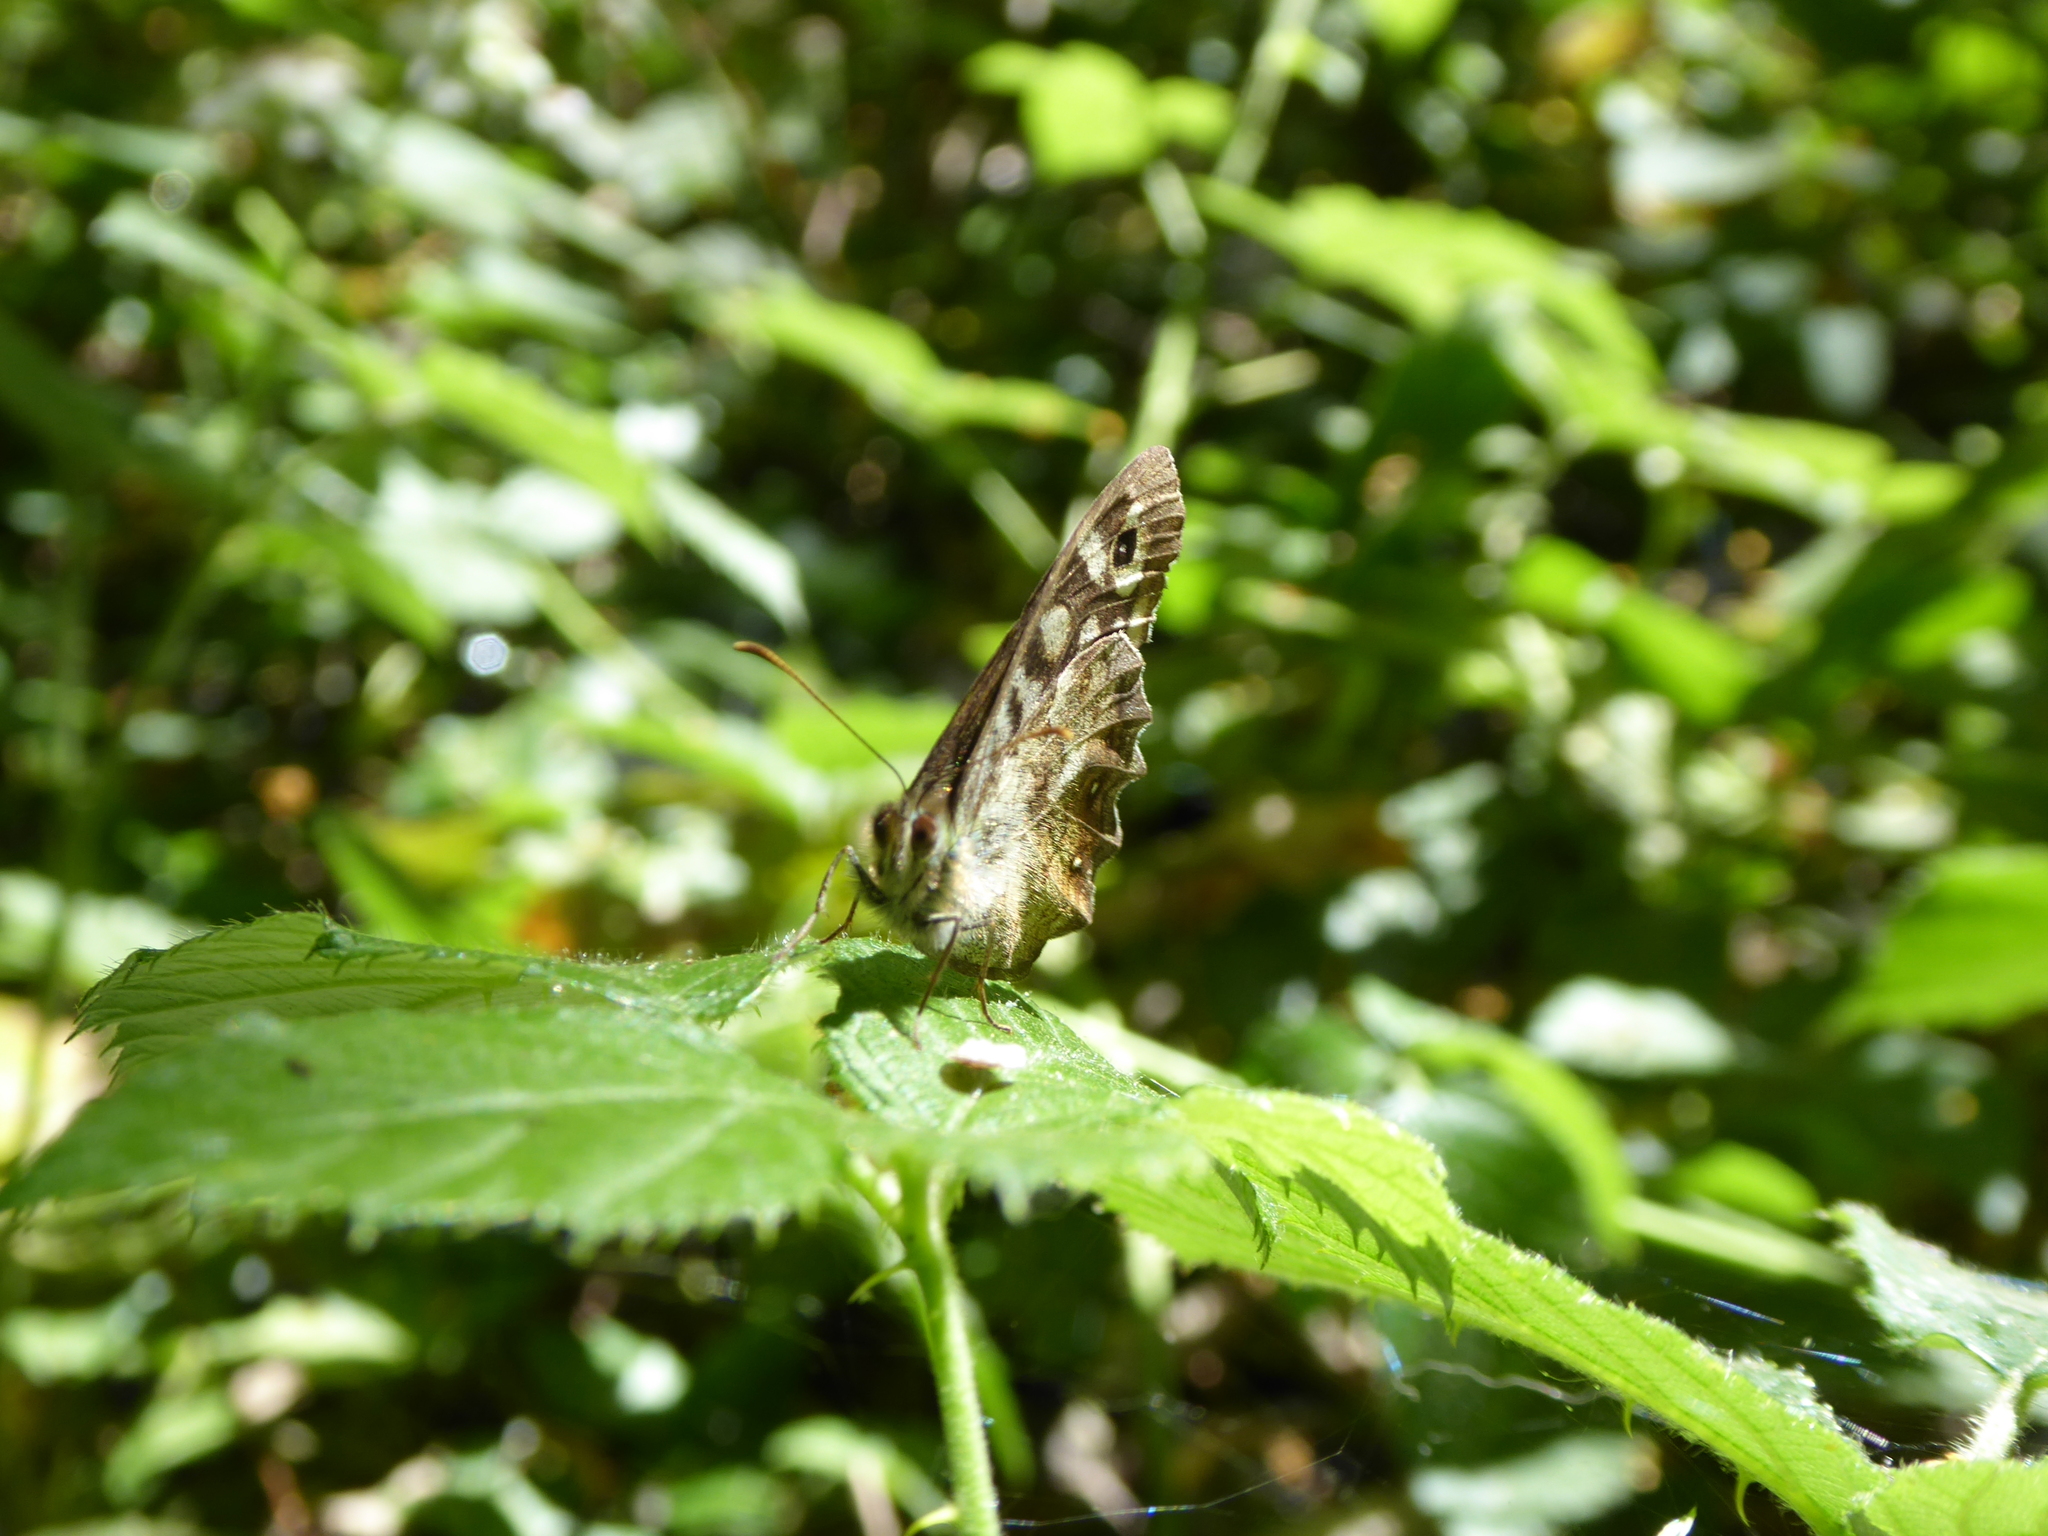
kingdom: Animalia
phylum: Arthropoda
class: Insecta
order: Lepidoptera
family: Nymphalidae
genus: Pararge
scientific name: Pararge aegeria
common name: Speckled wood
